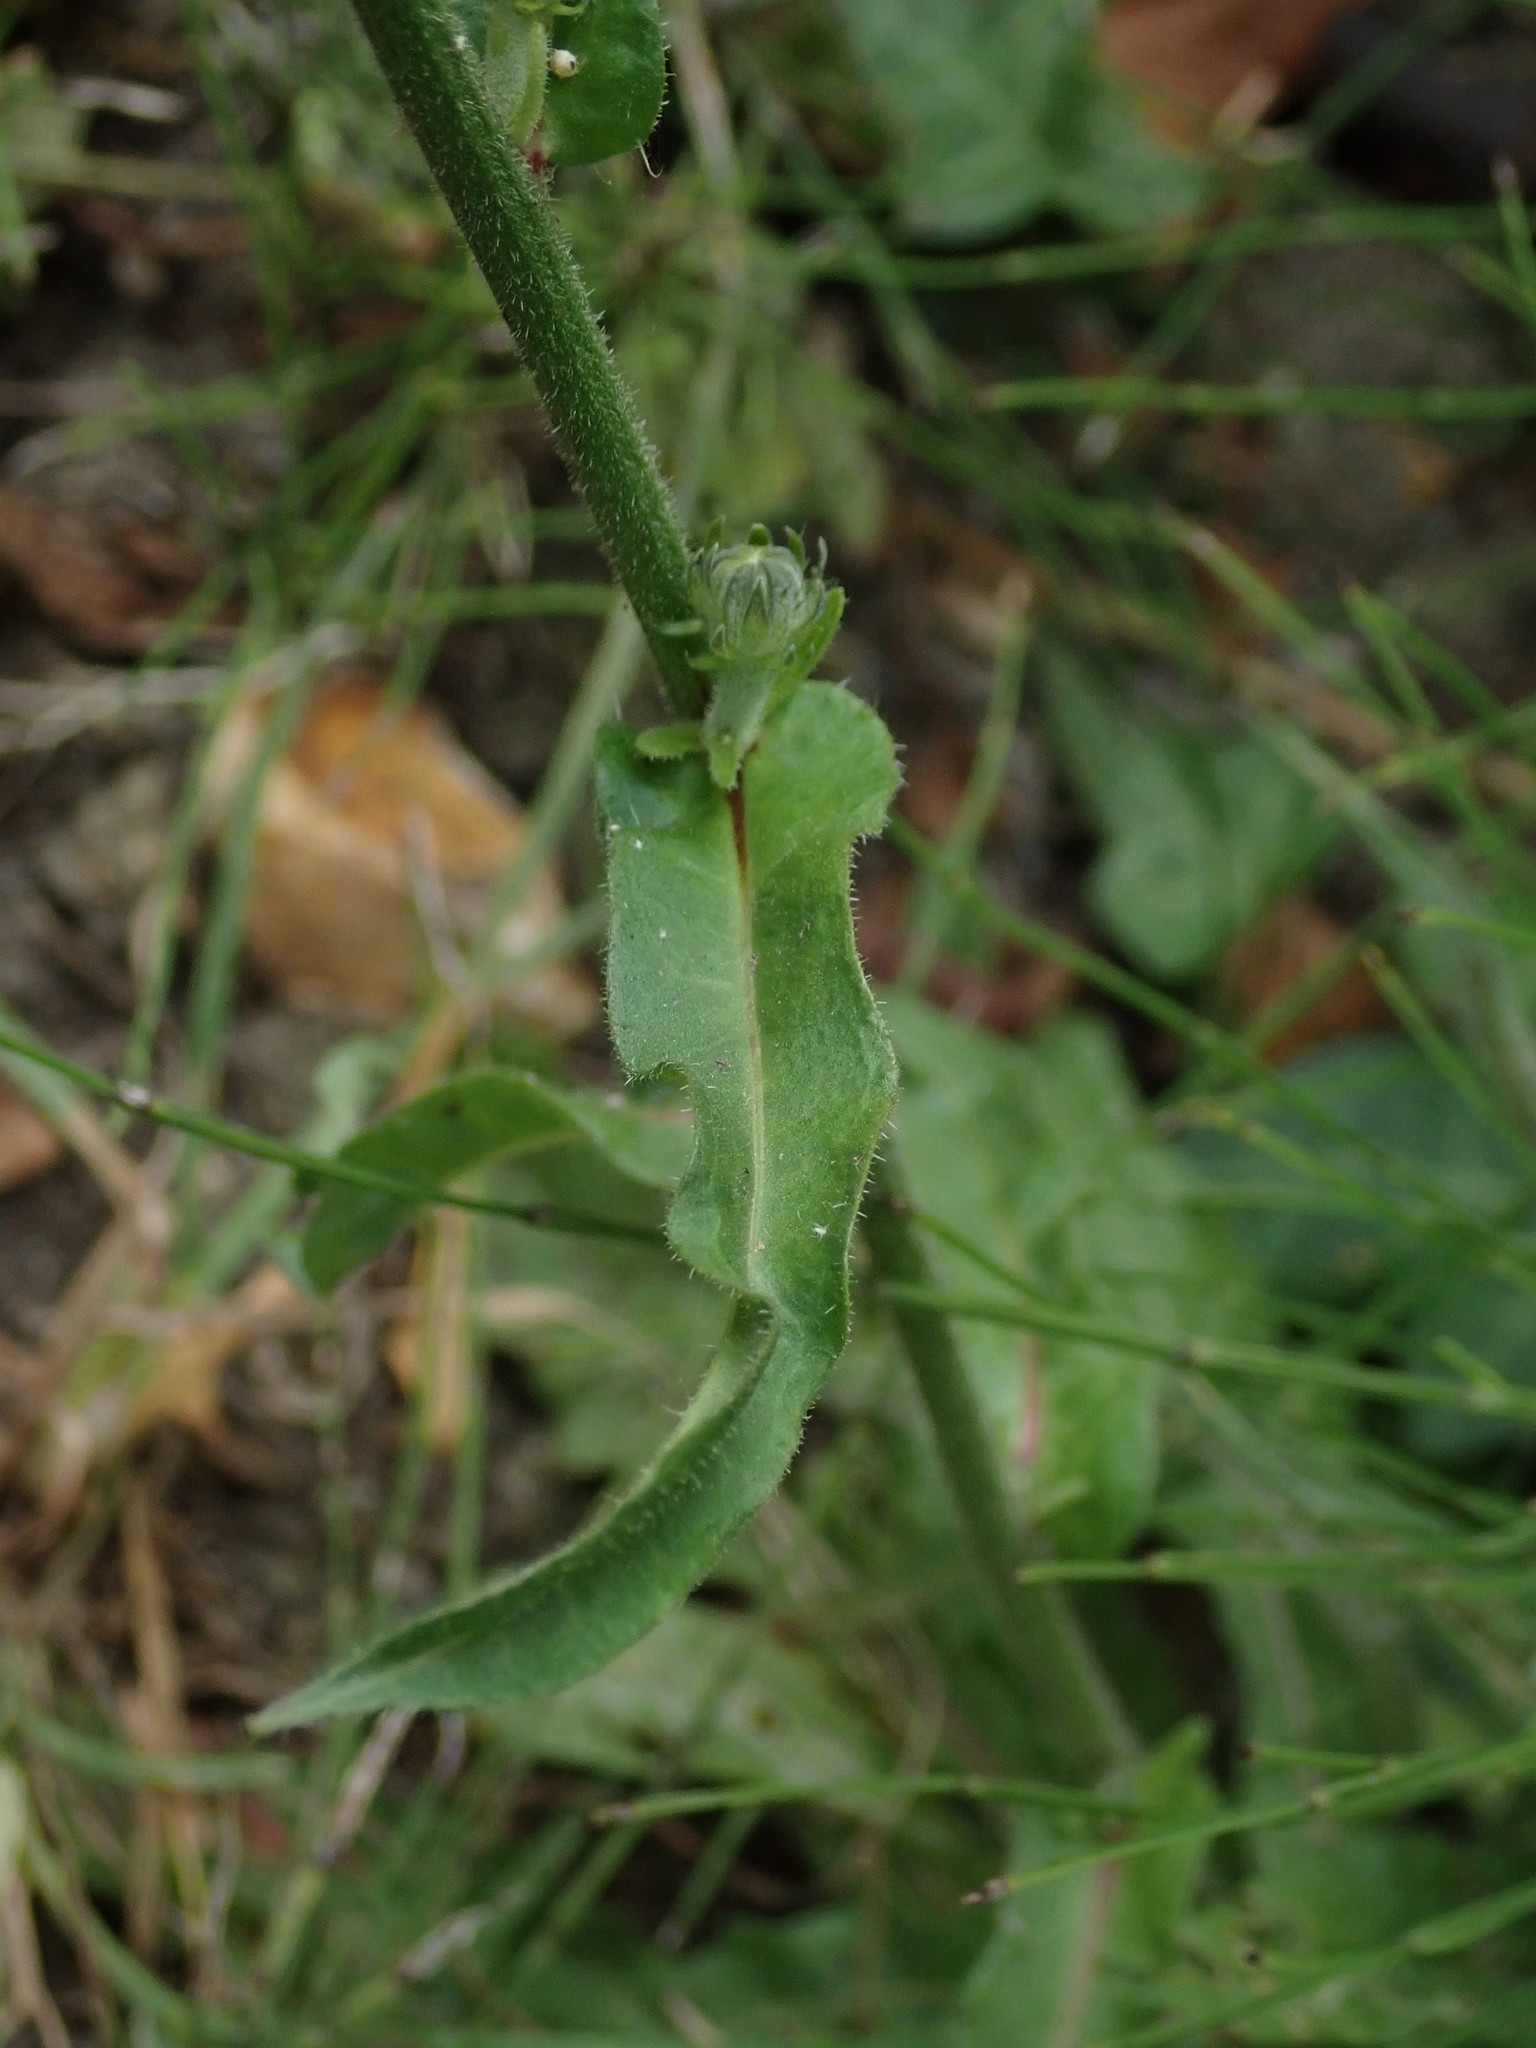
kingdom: Plantae
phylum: Tracheophyta
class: Magnoliopsida
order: Asterales
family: Asteraceae
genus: Picris
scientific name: Picris hieracioides
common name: Hawkweed oxtongue
